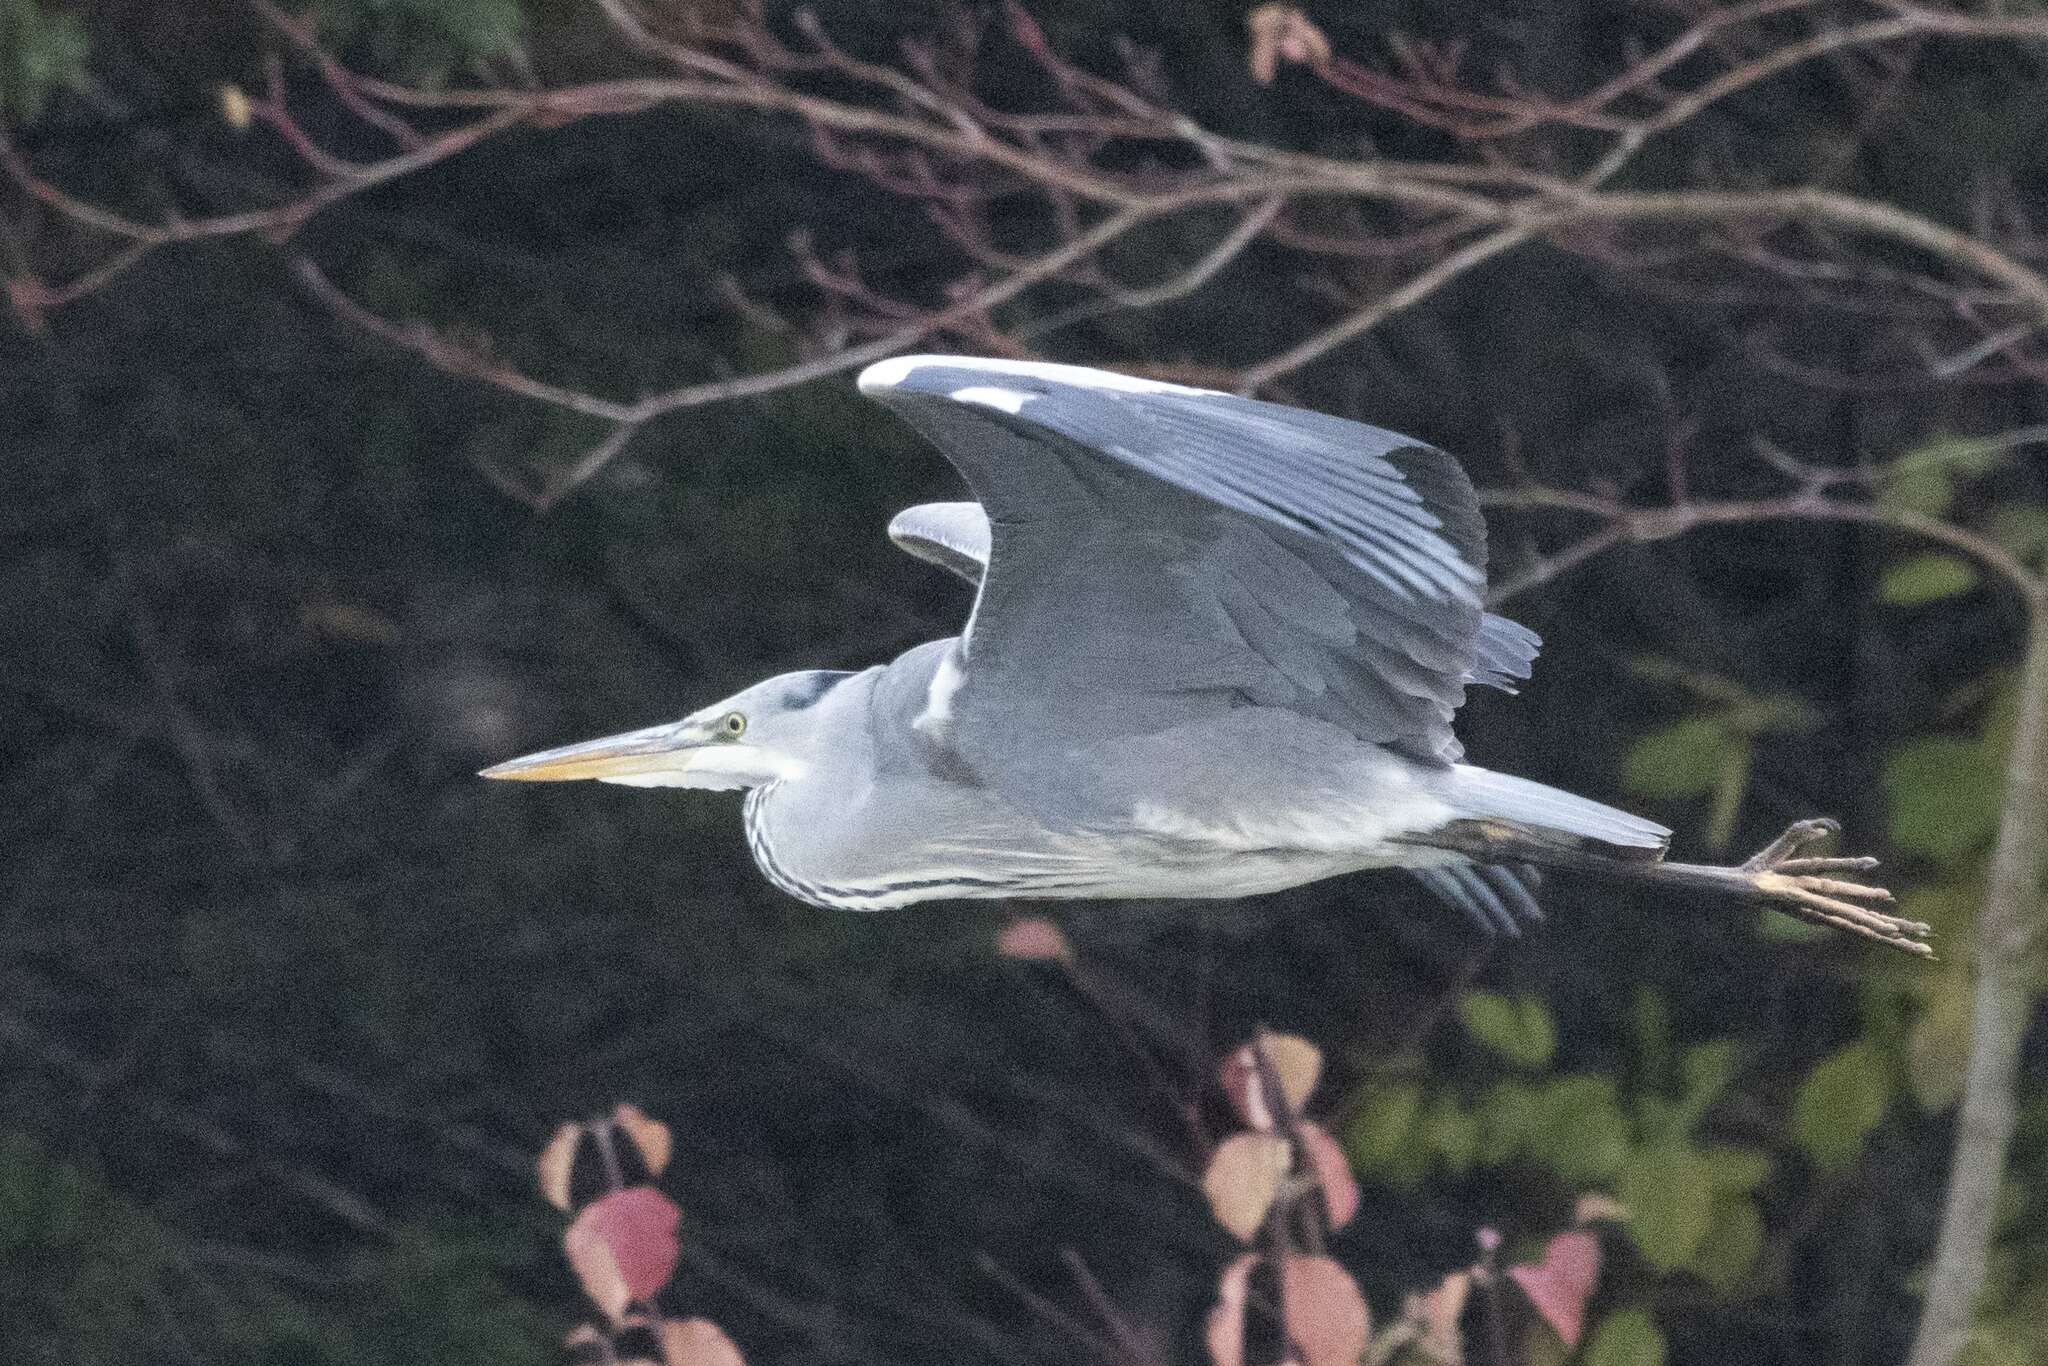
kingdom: Animalia
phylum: Chordata
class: Aves
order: Pelecaniformes
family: Ardeidae
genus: Ardea
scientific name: Ardea cinerea
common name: Grey heron
